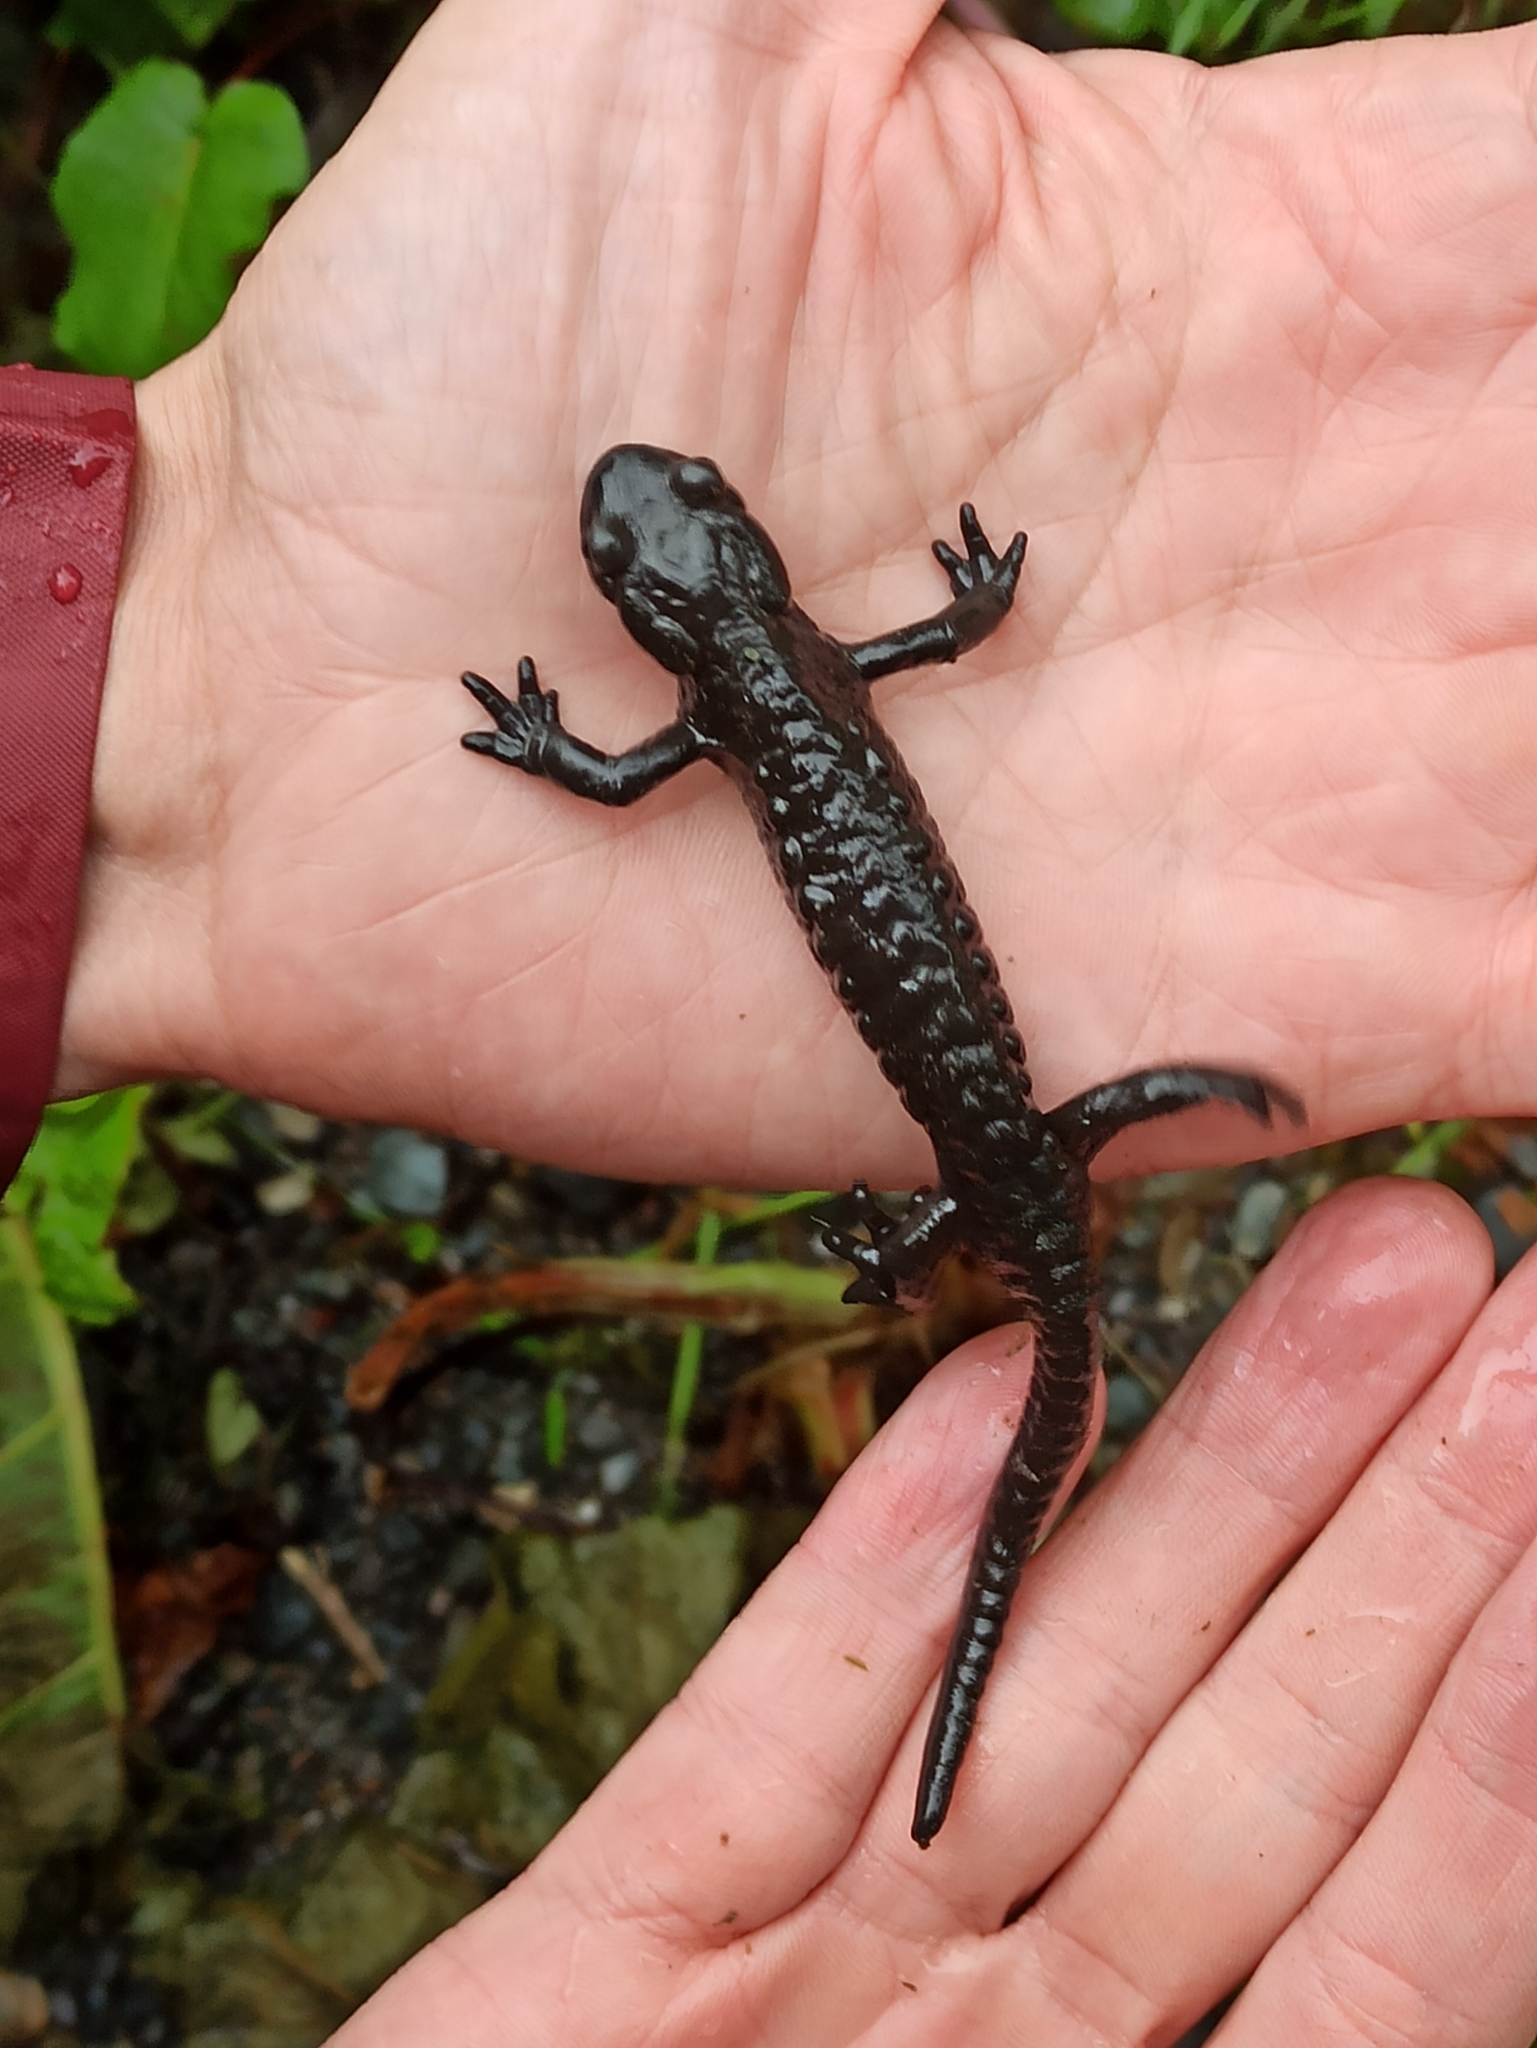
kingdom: Animalia
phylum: Chordata
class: Amphibia
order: Caudata
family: Salamandridae
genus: Salamandra
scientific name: Salamandra atra
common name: Alpine salamander
